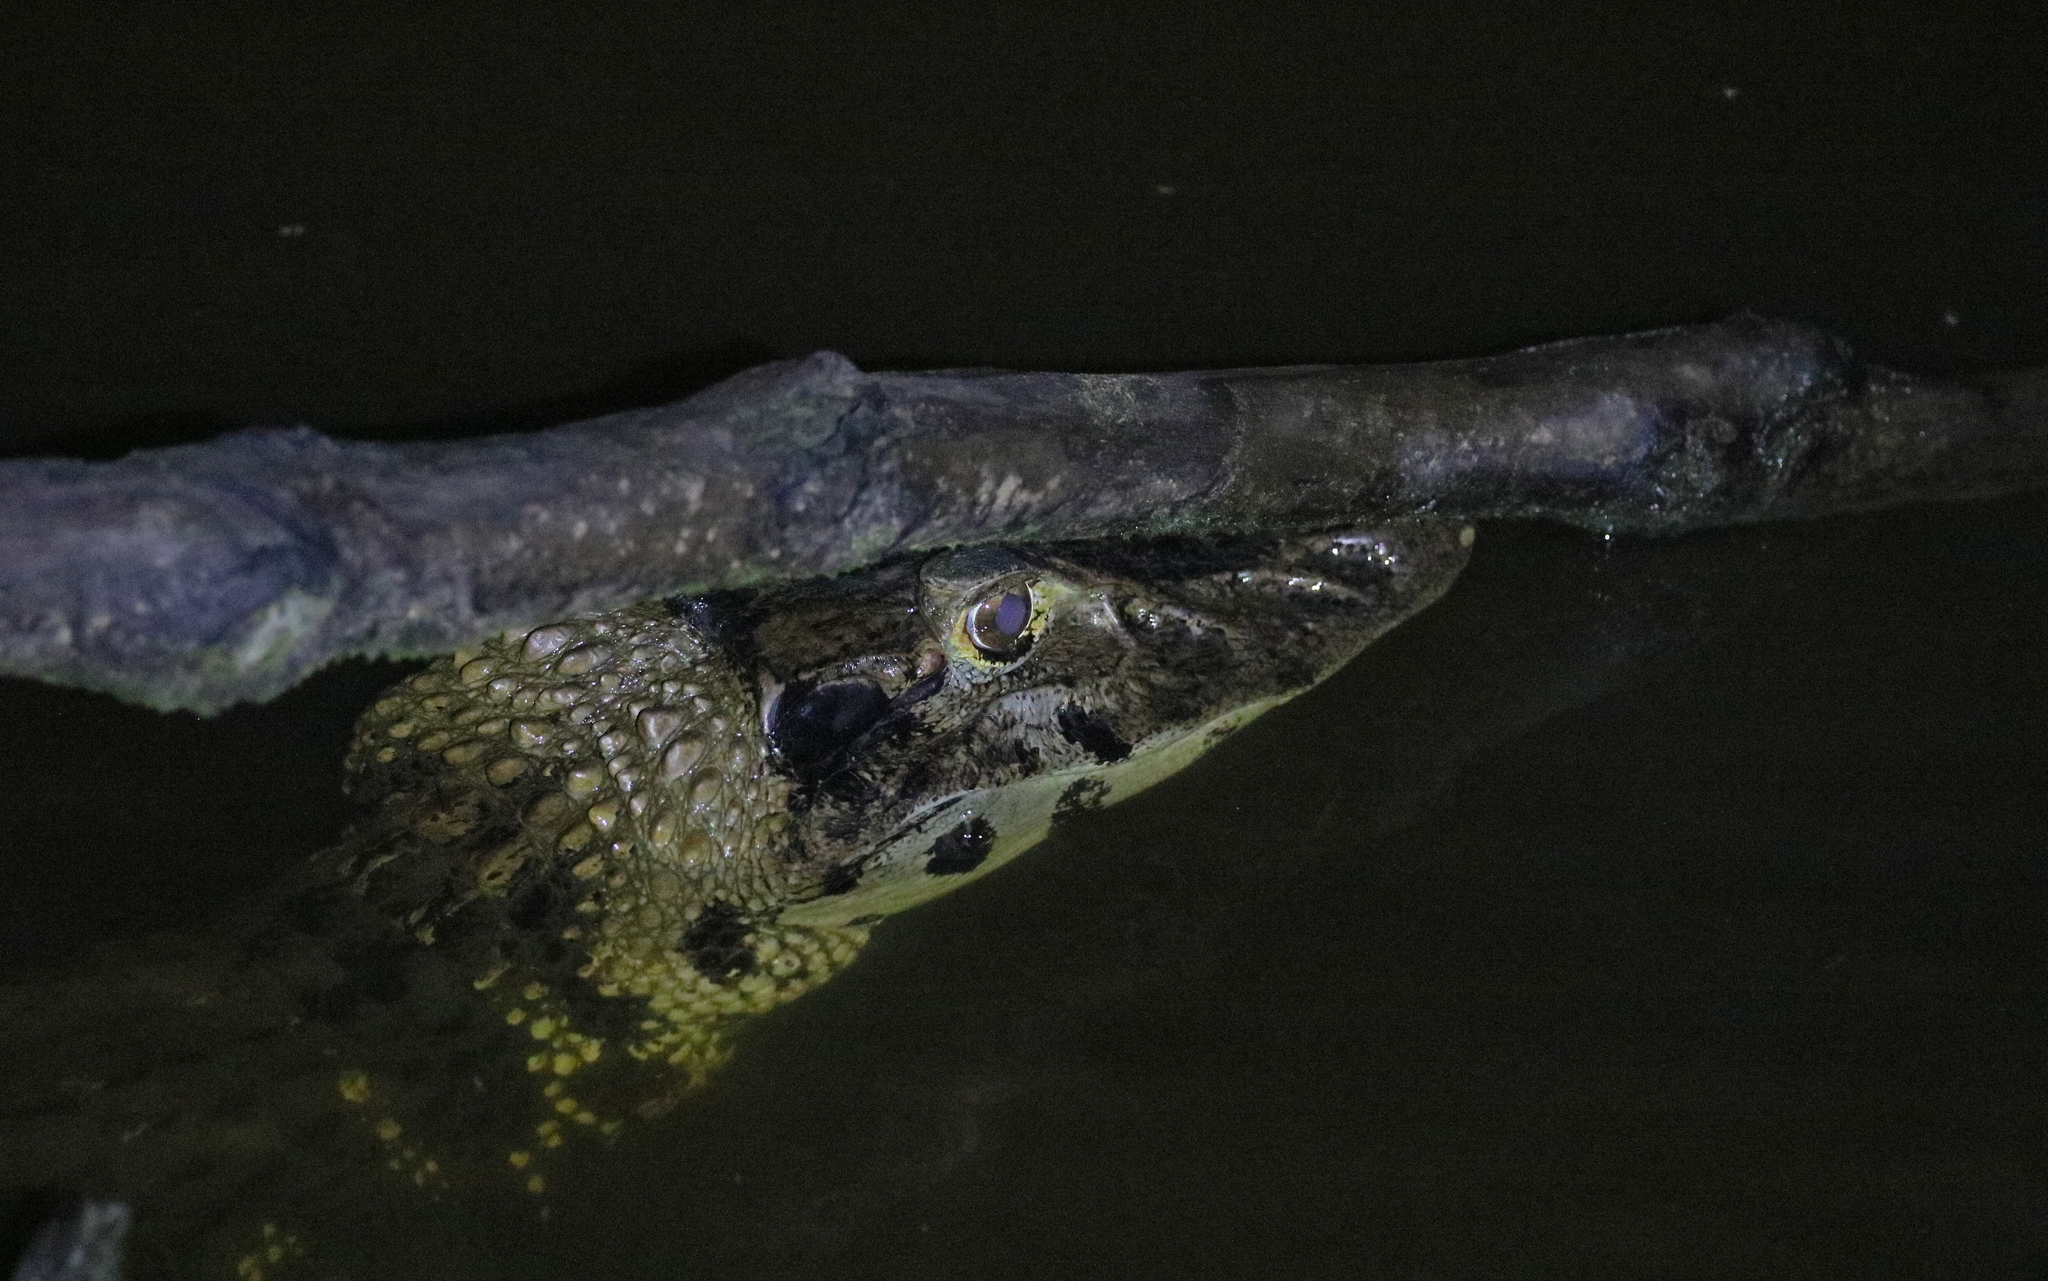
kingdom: Animalia
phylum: Chordata
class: Crocodylia
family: Alligatoridae
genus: Melanosuchus
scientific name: Melanosuchus niger
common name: Black caiman
